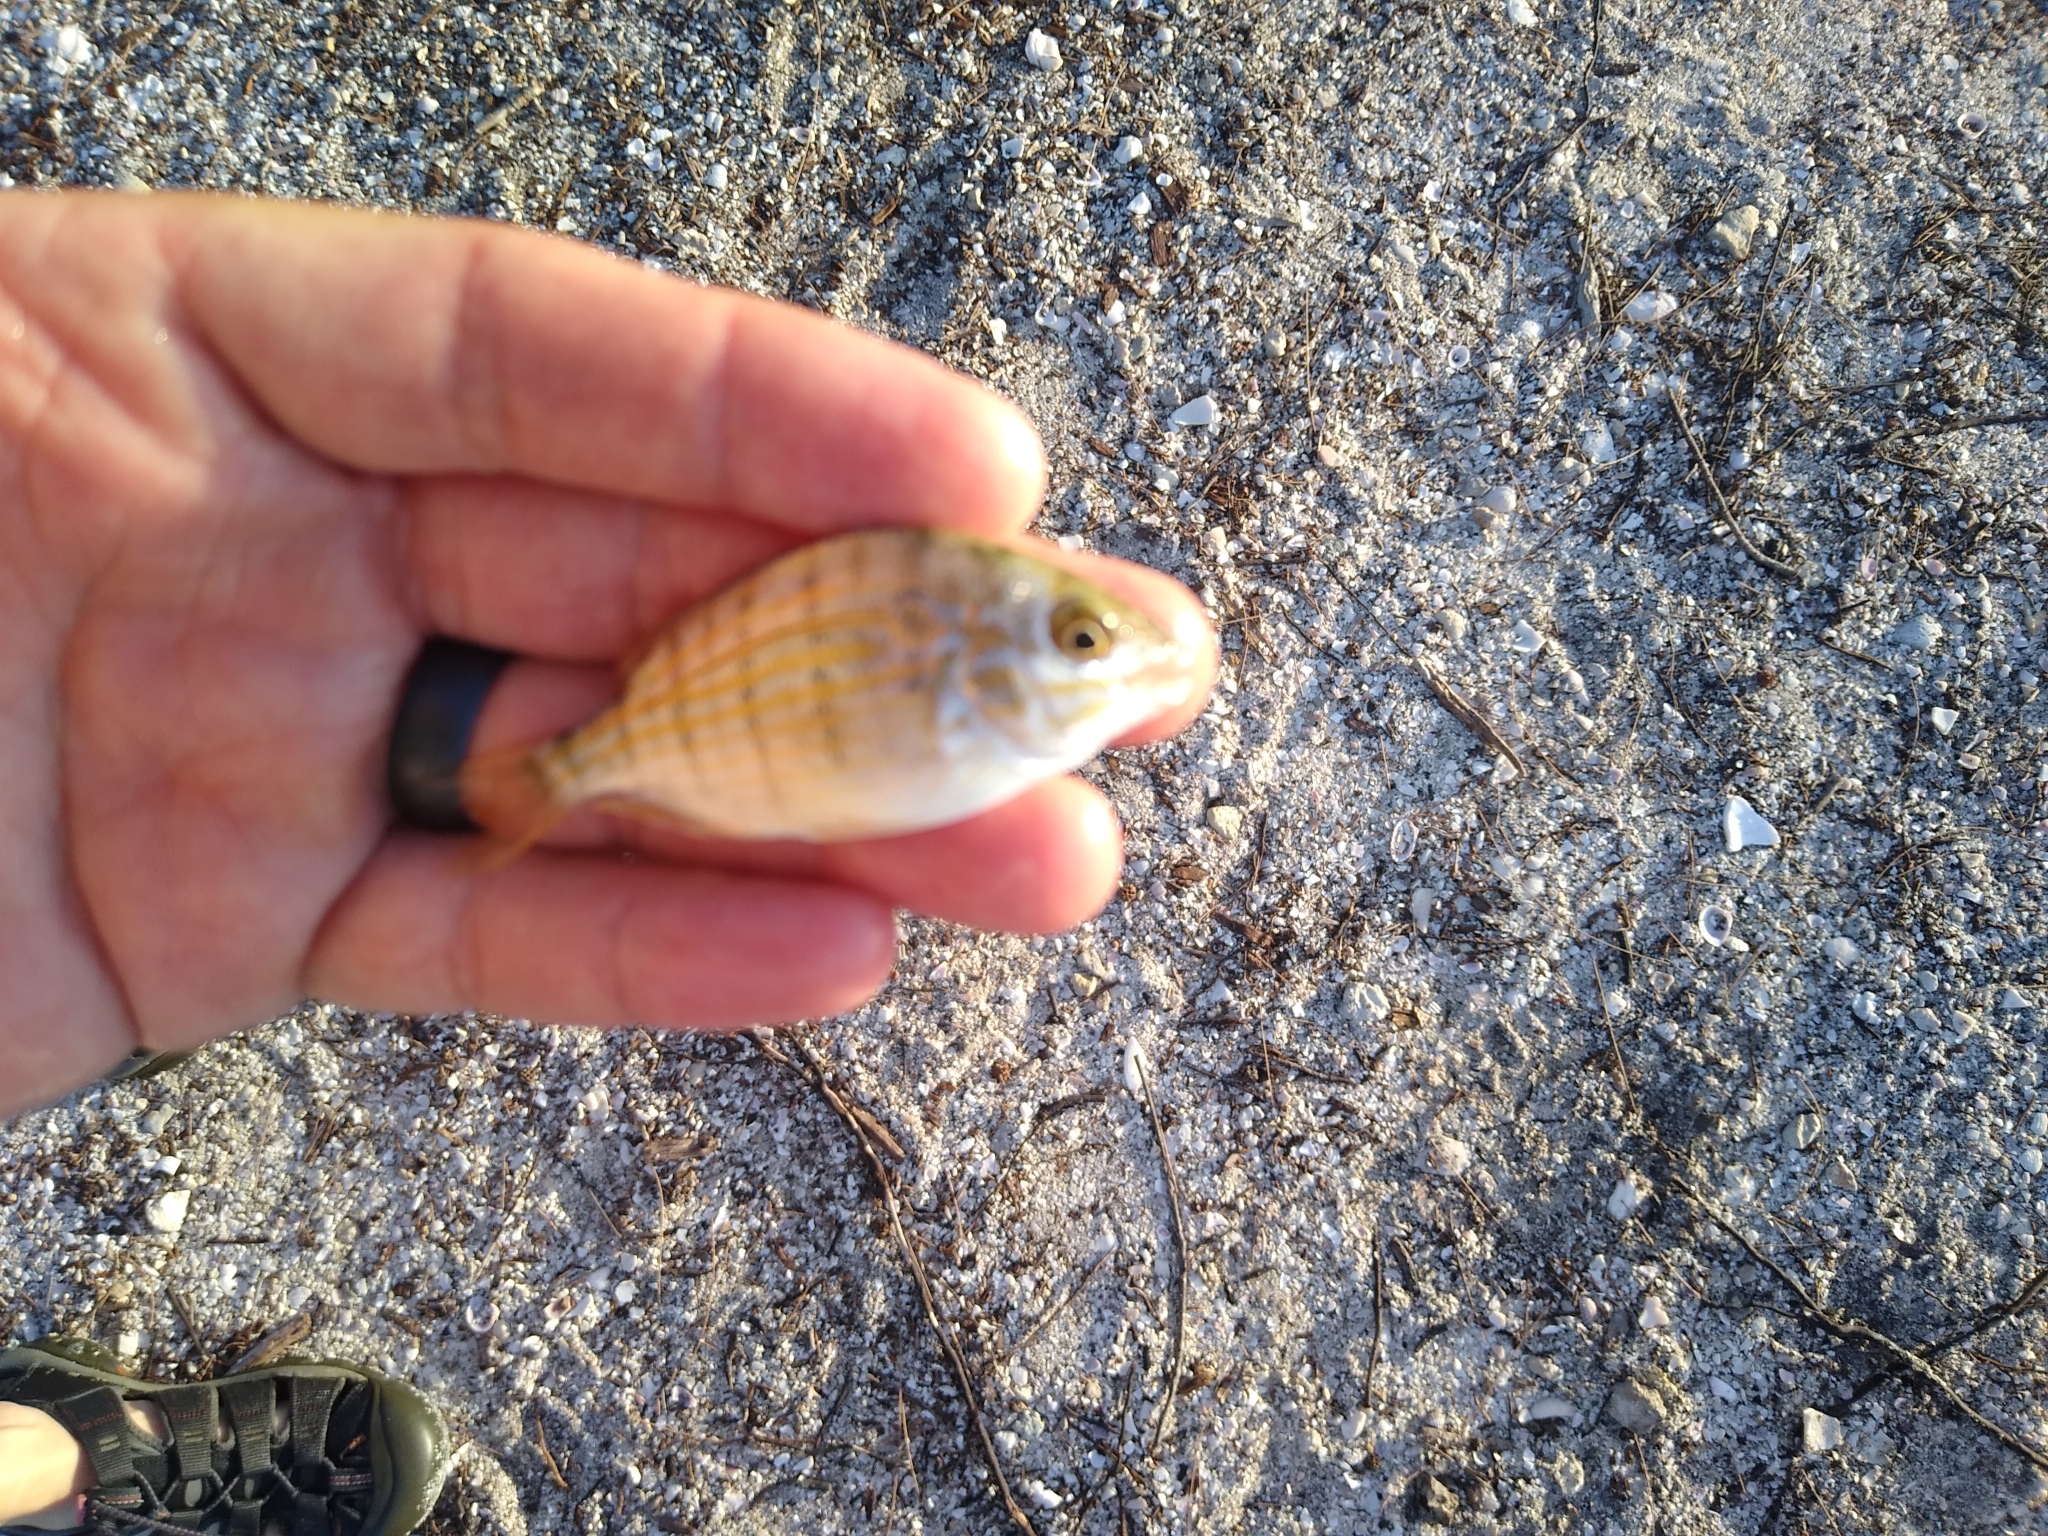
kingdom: Animalia
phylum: Chordata
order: Perciformes
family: Sparidae
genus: Lagodon
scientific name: Lagodon rhomboides
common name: Pinfish
